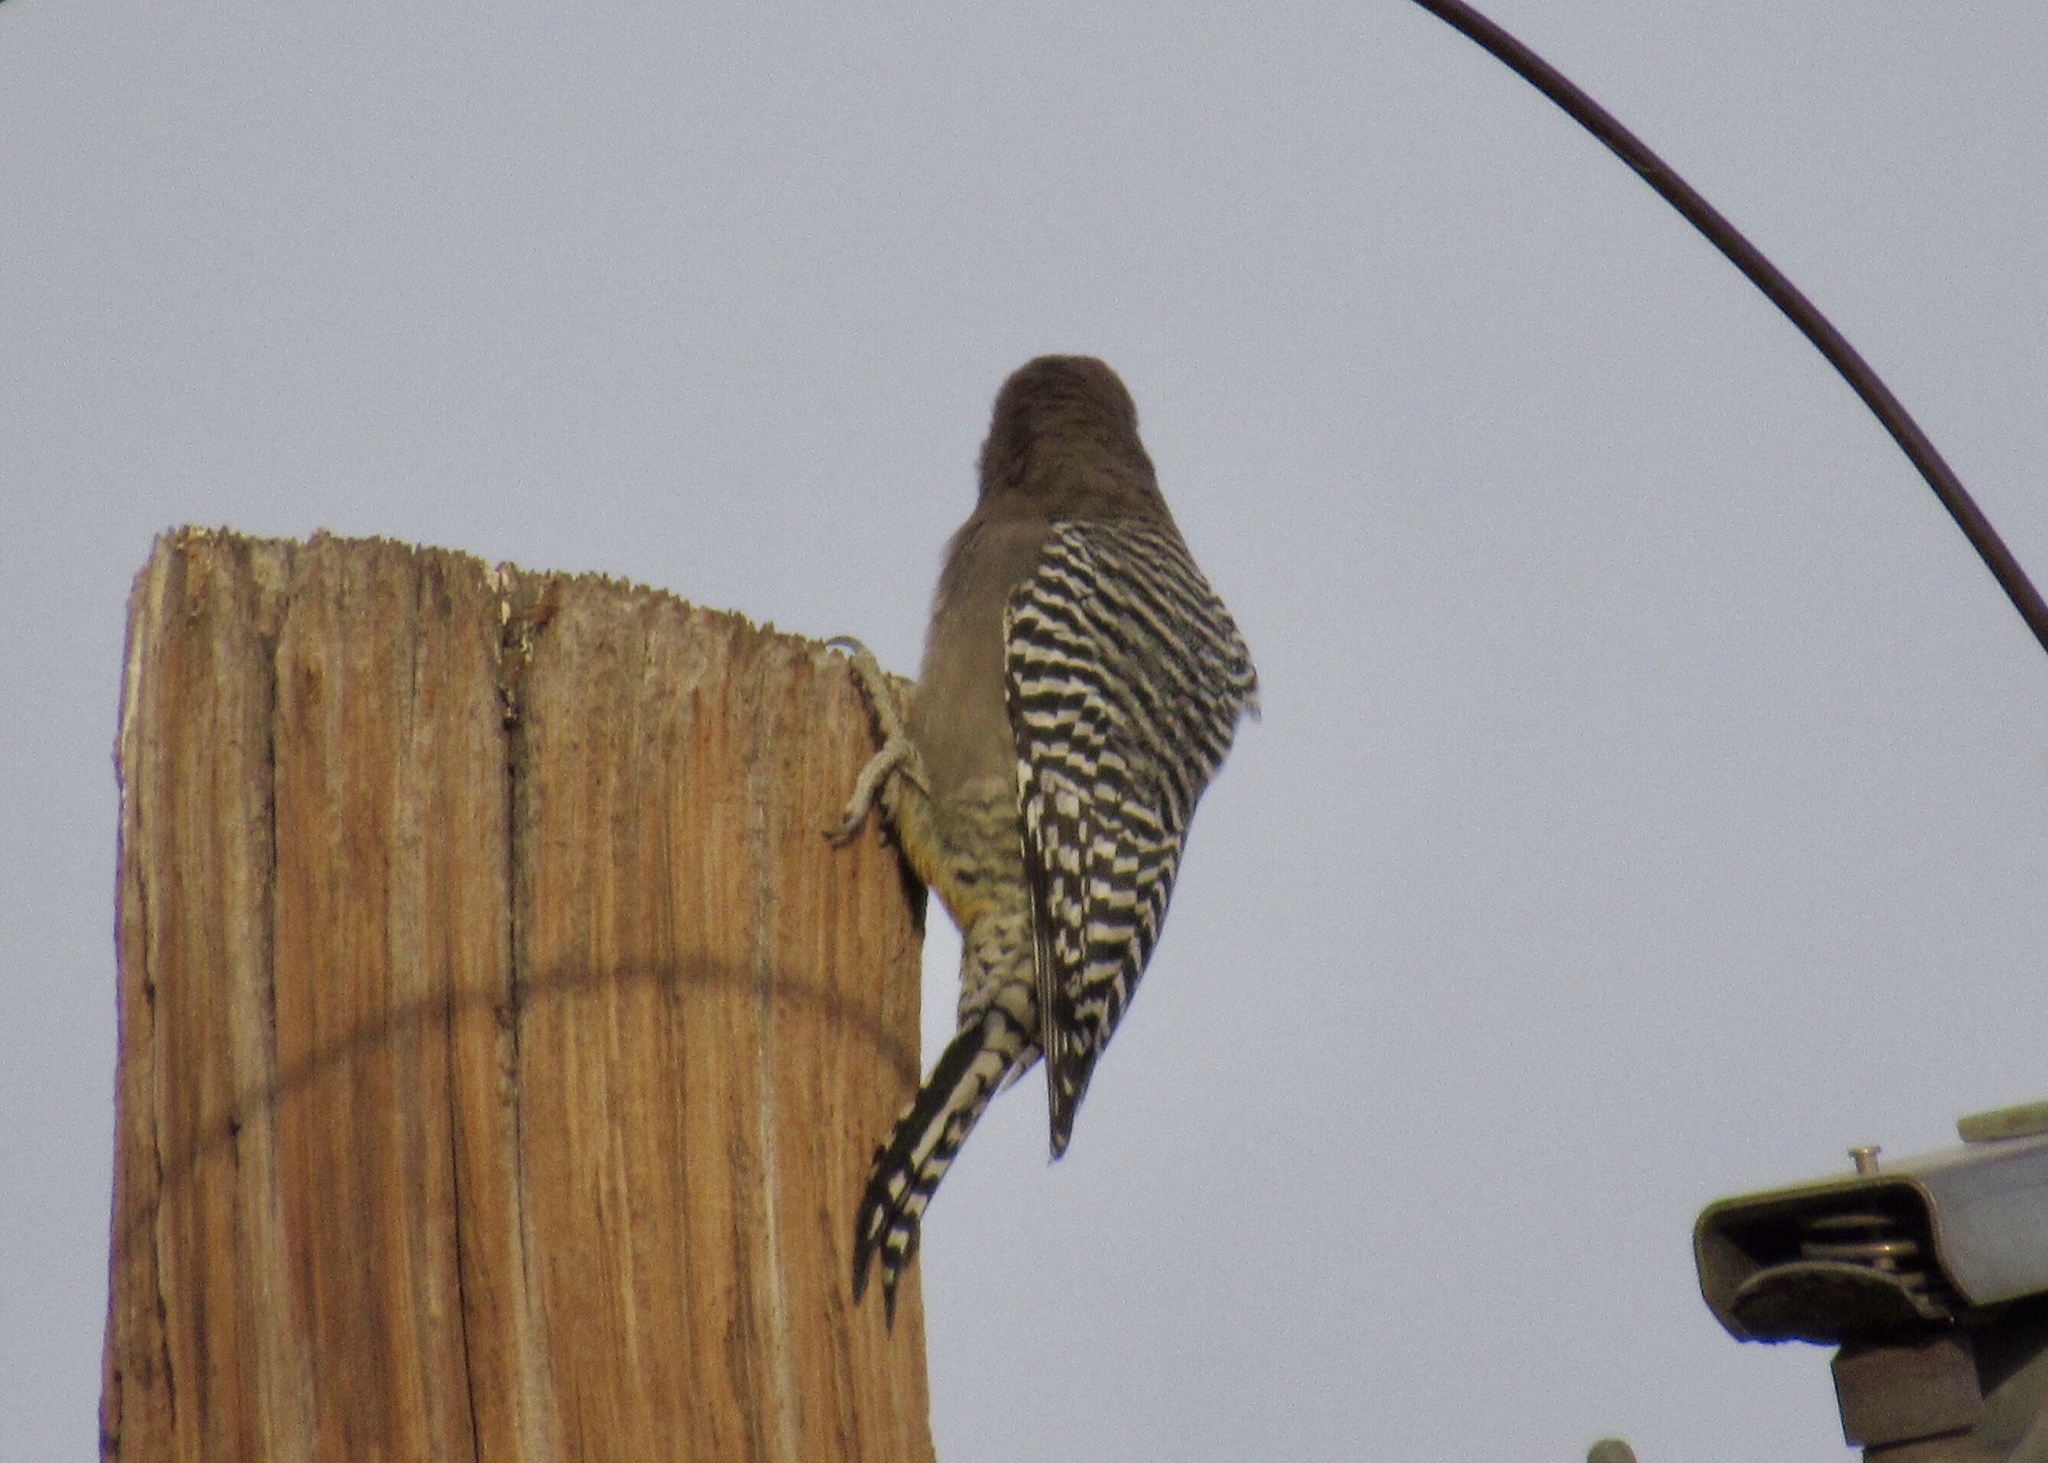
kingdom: Animalia
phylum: Chordata
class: Aves
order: Piciformes
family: Picidae
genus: Melanerpes
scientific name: Melanerpes uropygialis
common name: Gila woodpecker
